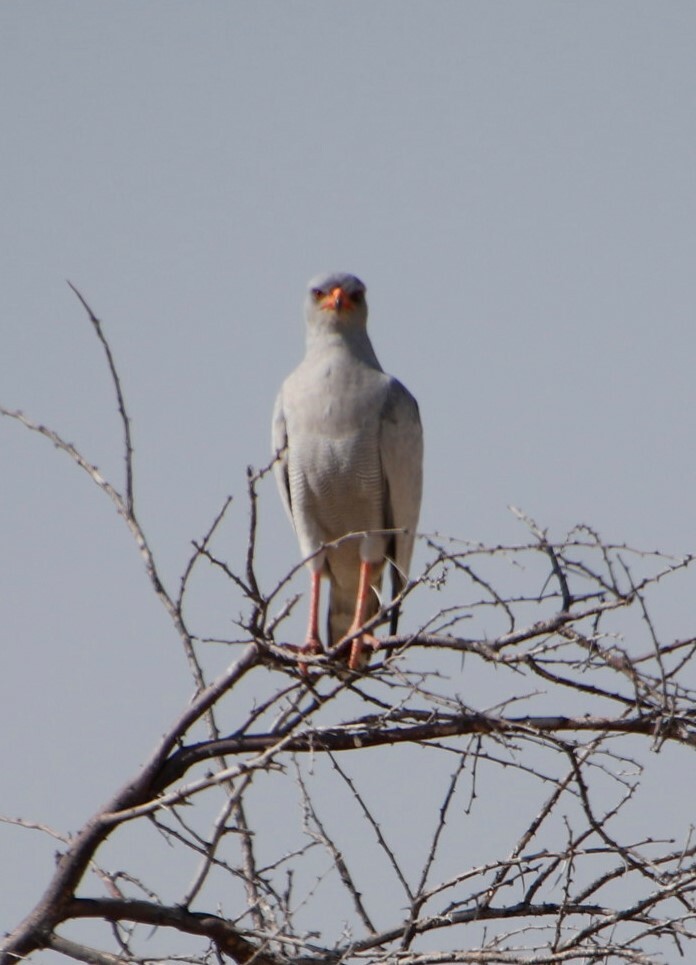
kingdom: Animalia
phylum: Chordata
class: Aves
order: Accipitriformes
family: Accipitridae
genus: Melierax
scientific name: Melierax canorus
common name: Pale chanting-goshawk
